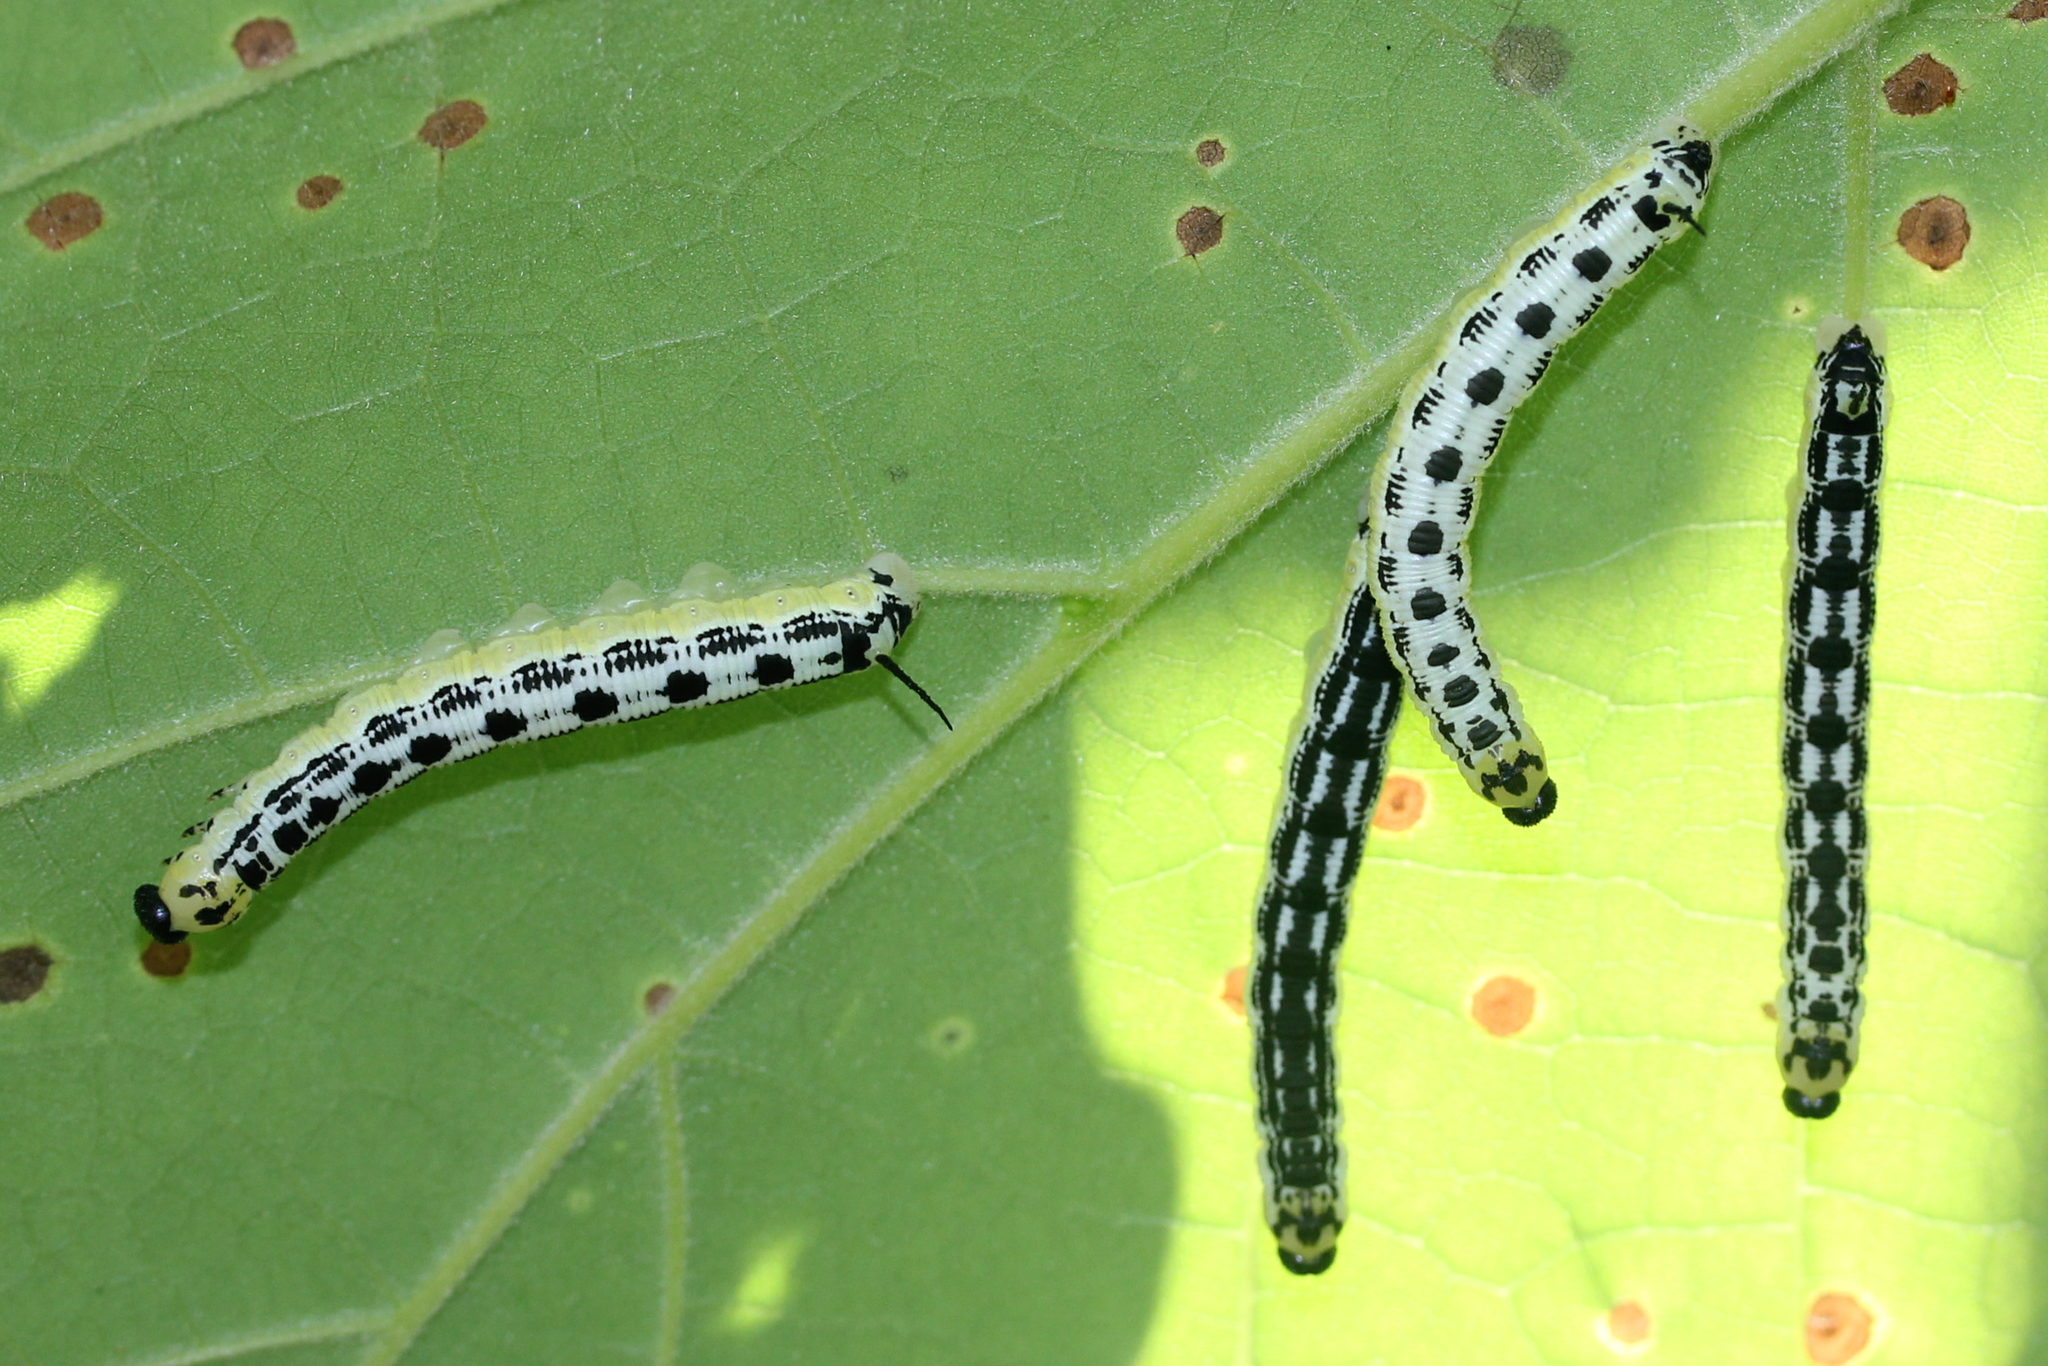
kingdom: Animalia
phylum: Arthropoda
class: Insecta
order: Lepidoptera
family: Sphingidae
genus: Ceratomia
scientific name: Ceratomia catalpae
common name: Catalpa hornworm
